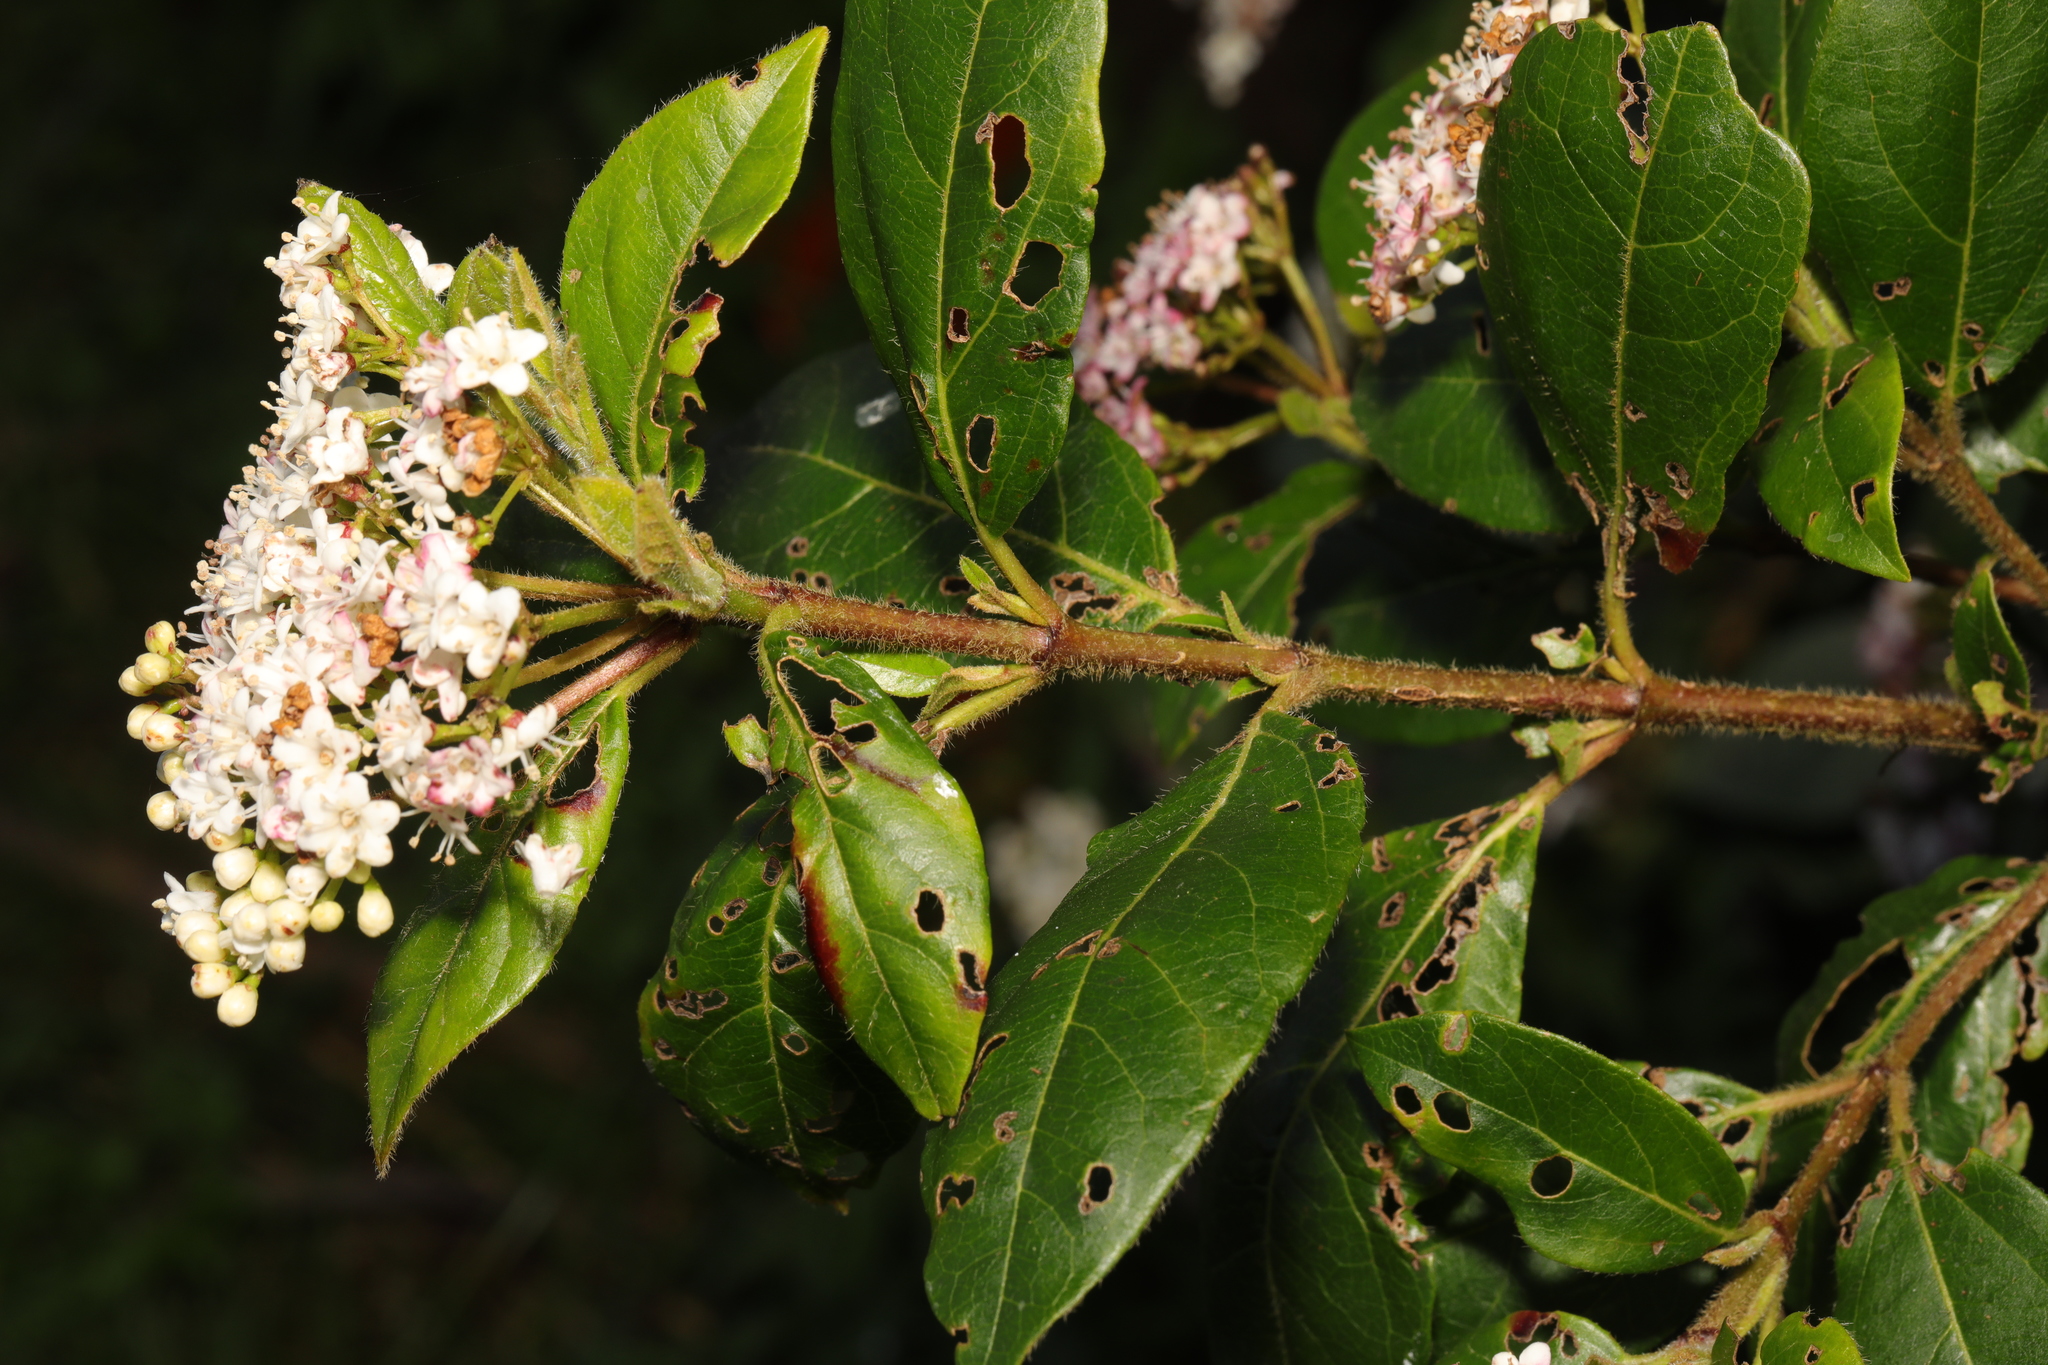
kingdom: Plantae
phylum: Tracheophyta
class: Magnoliopsida
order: Dipsacales
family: Viburnaceae
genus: Viburnum
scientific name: Viburnum tinus
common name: Laurustinus
